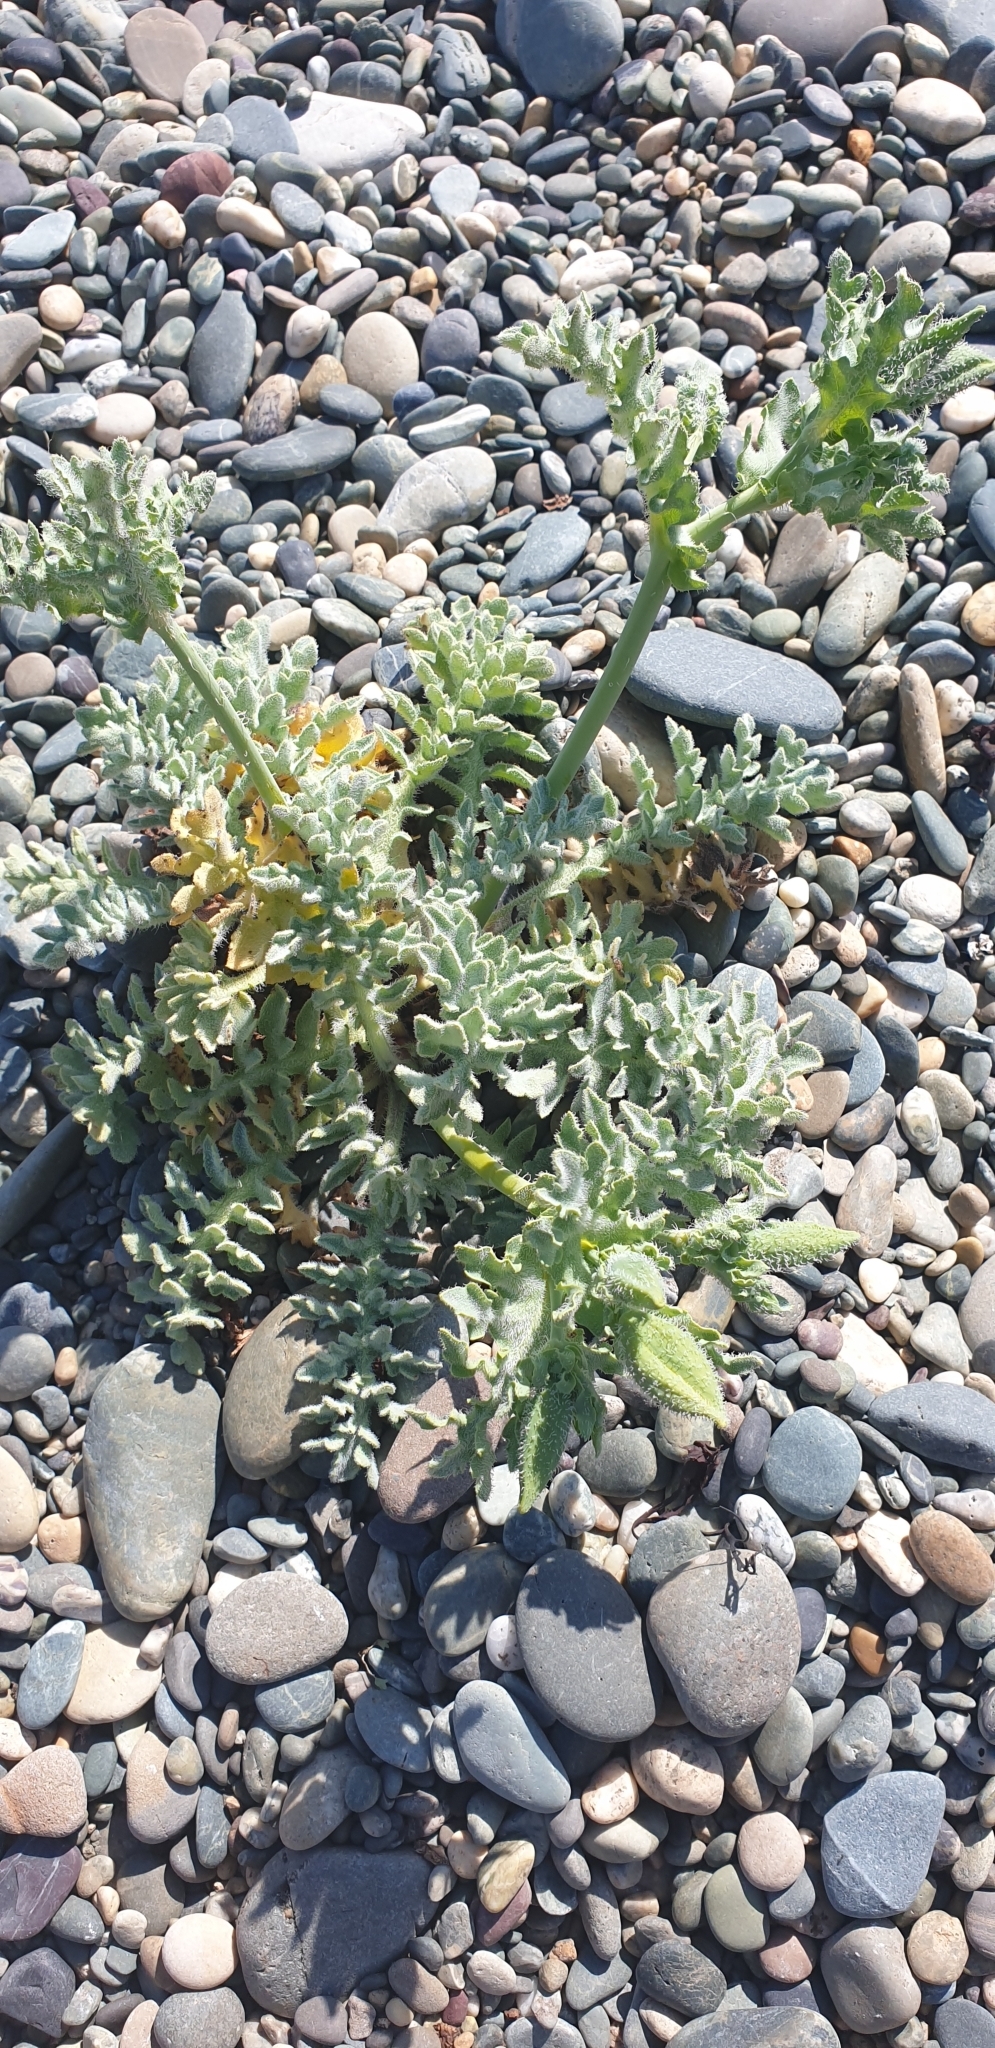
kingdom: Plantae
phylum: Tracheophyta
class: Magnoliopsida
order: Ranunculales
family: Papaveraceae
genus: Glaucium
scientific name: Glaucium flavum
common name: Yellow horned-poppy
